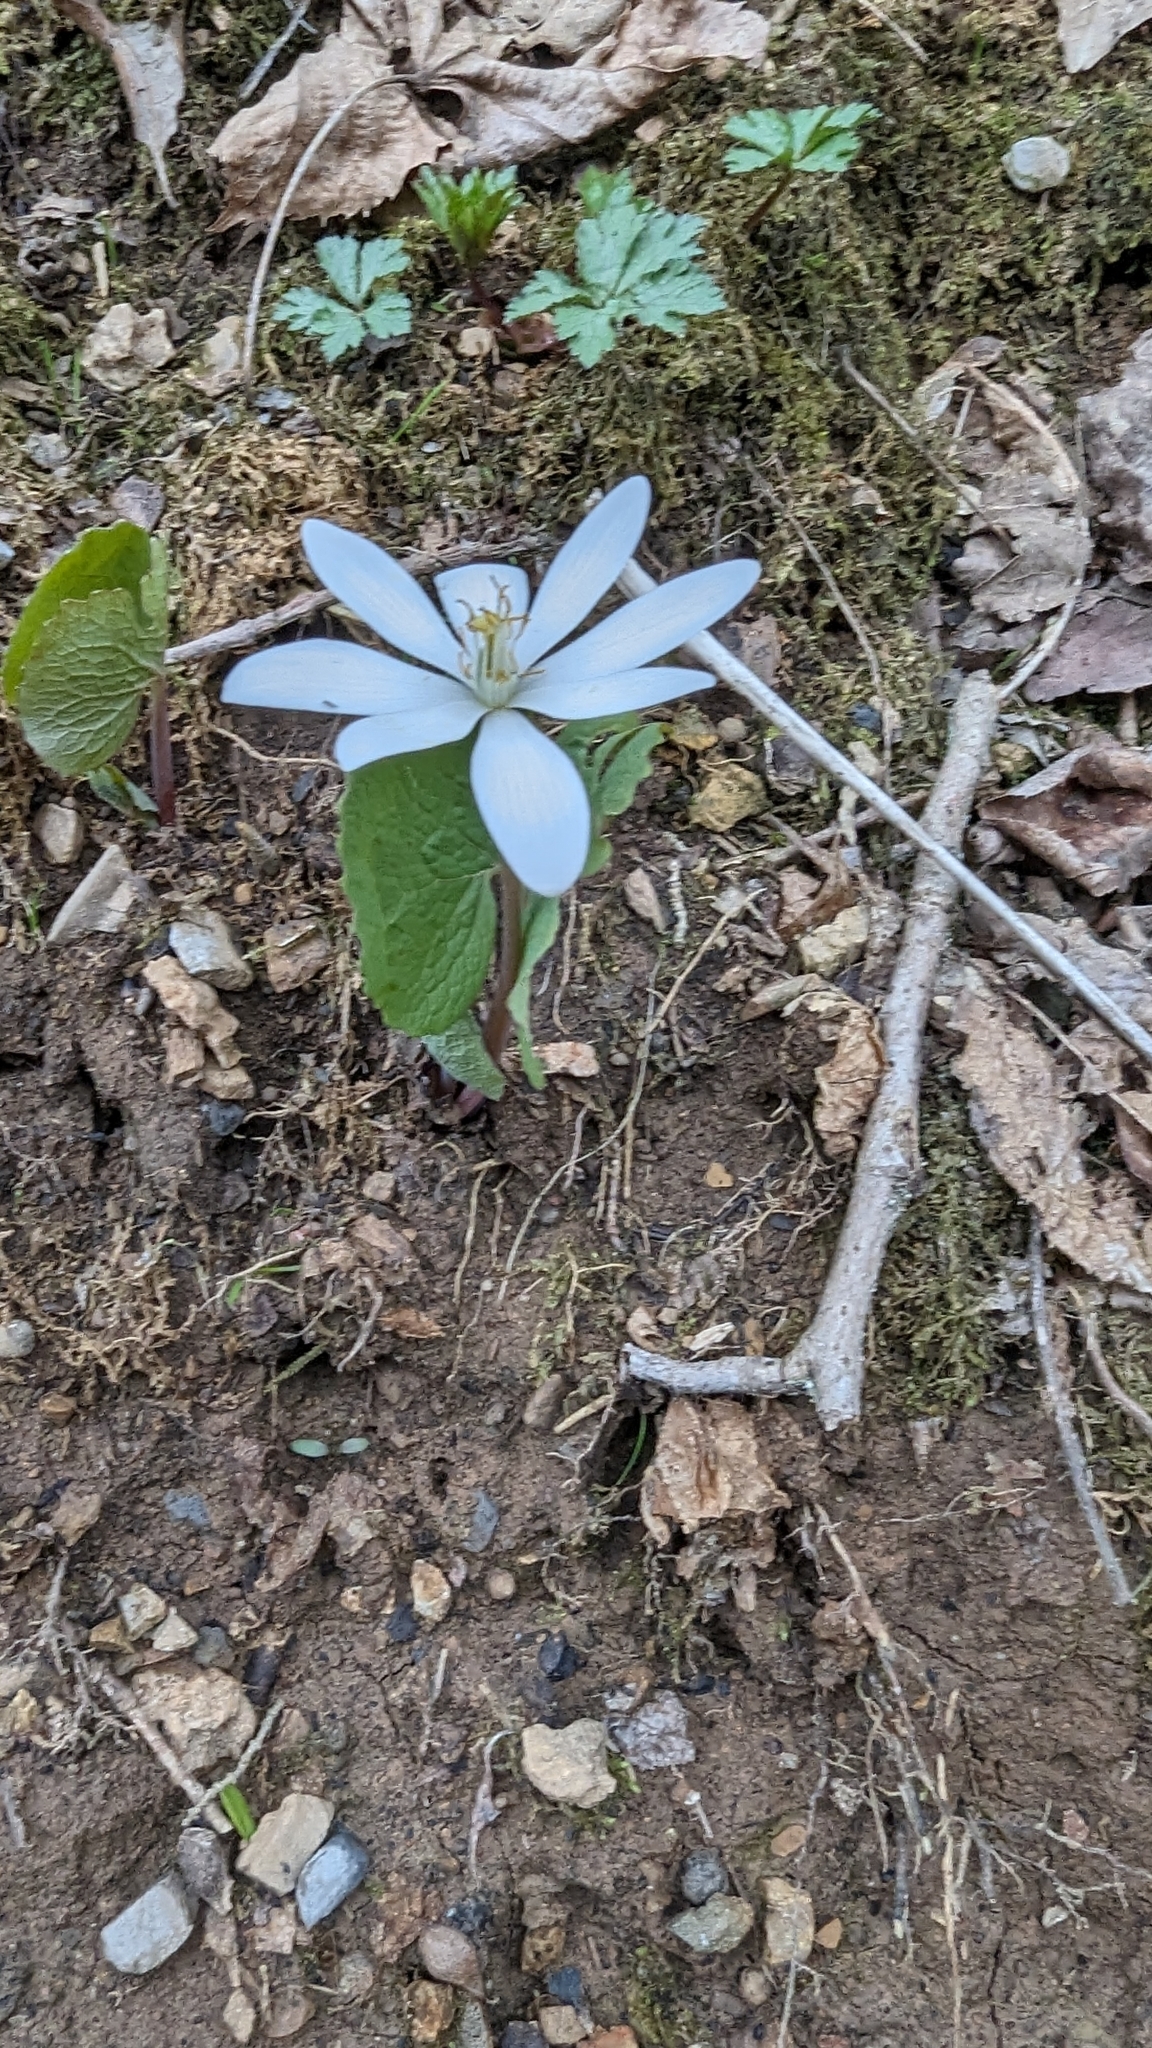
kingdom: Plantae
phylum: Tracheophyta
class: Magnoliopsida
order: Ranunculales
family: Papaveraceae
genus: Sanguinaria
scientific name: Sanguinaria canadensis
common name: Bloodroot
